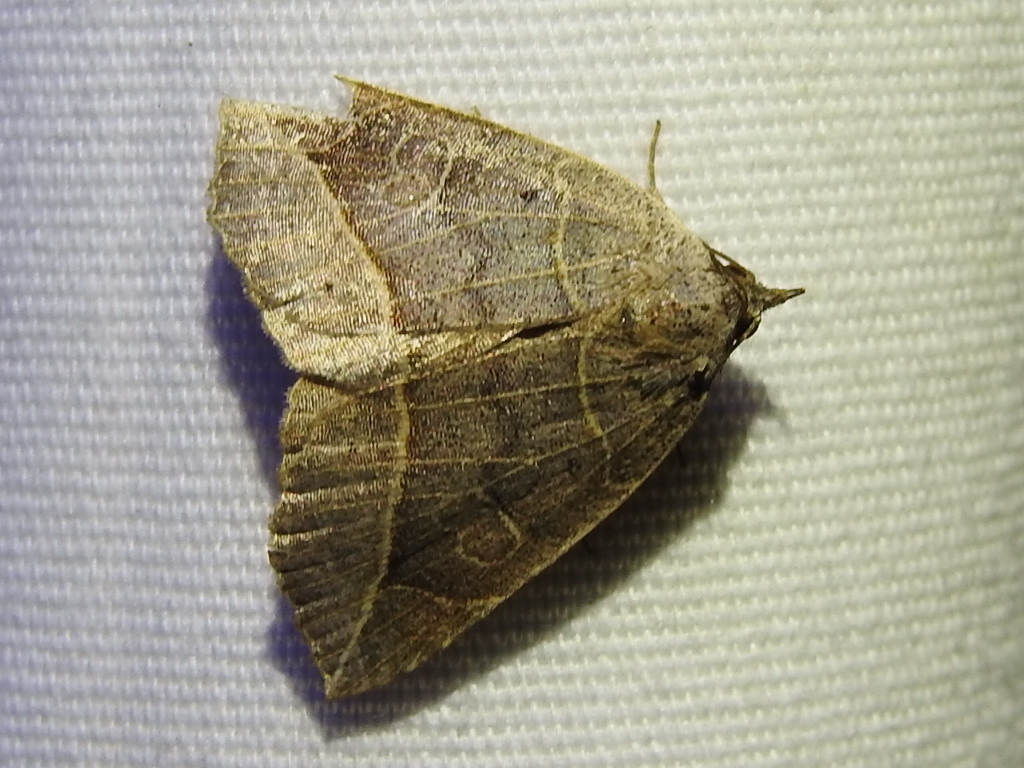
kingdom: Animalia
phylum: Arthropoda
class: Insecta
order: Lepidoptera
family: Erebidae
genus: Isogona
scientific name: Isogona tenuis
